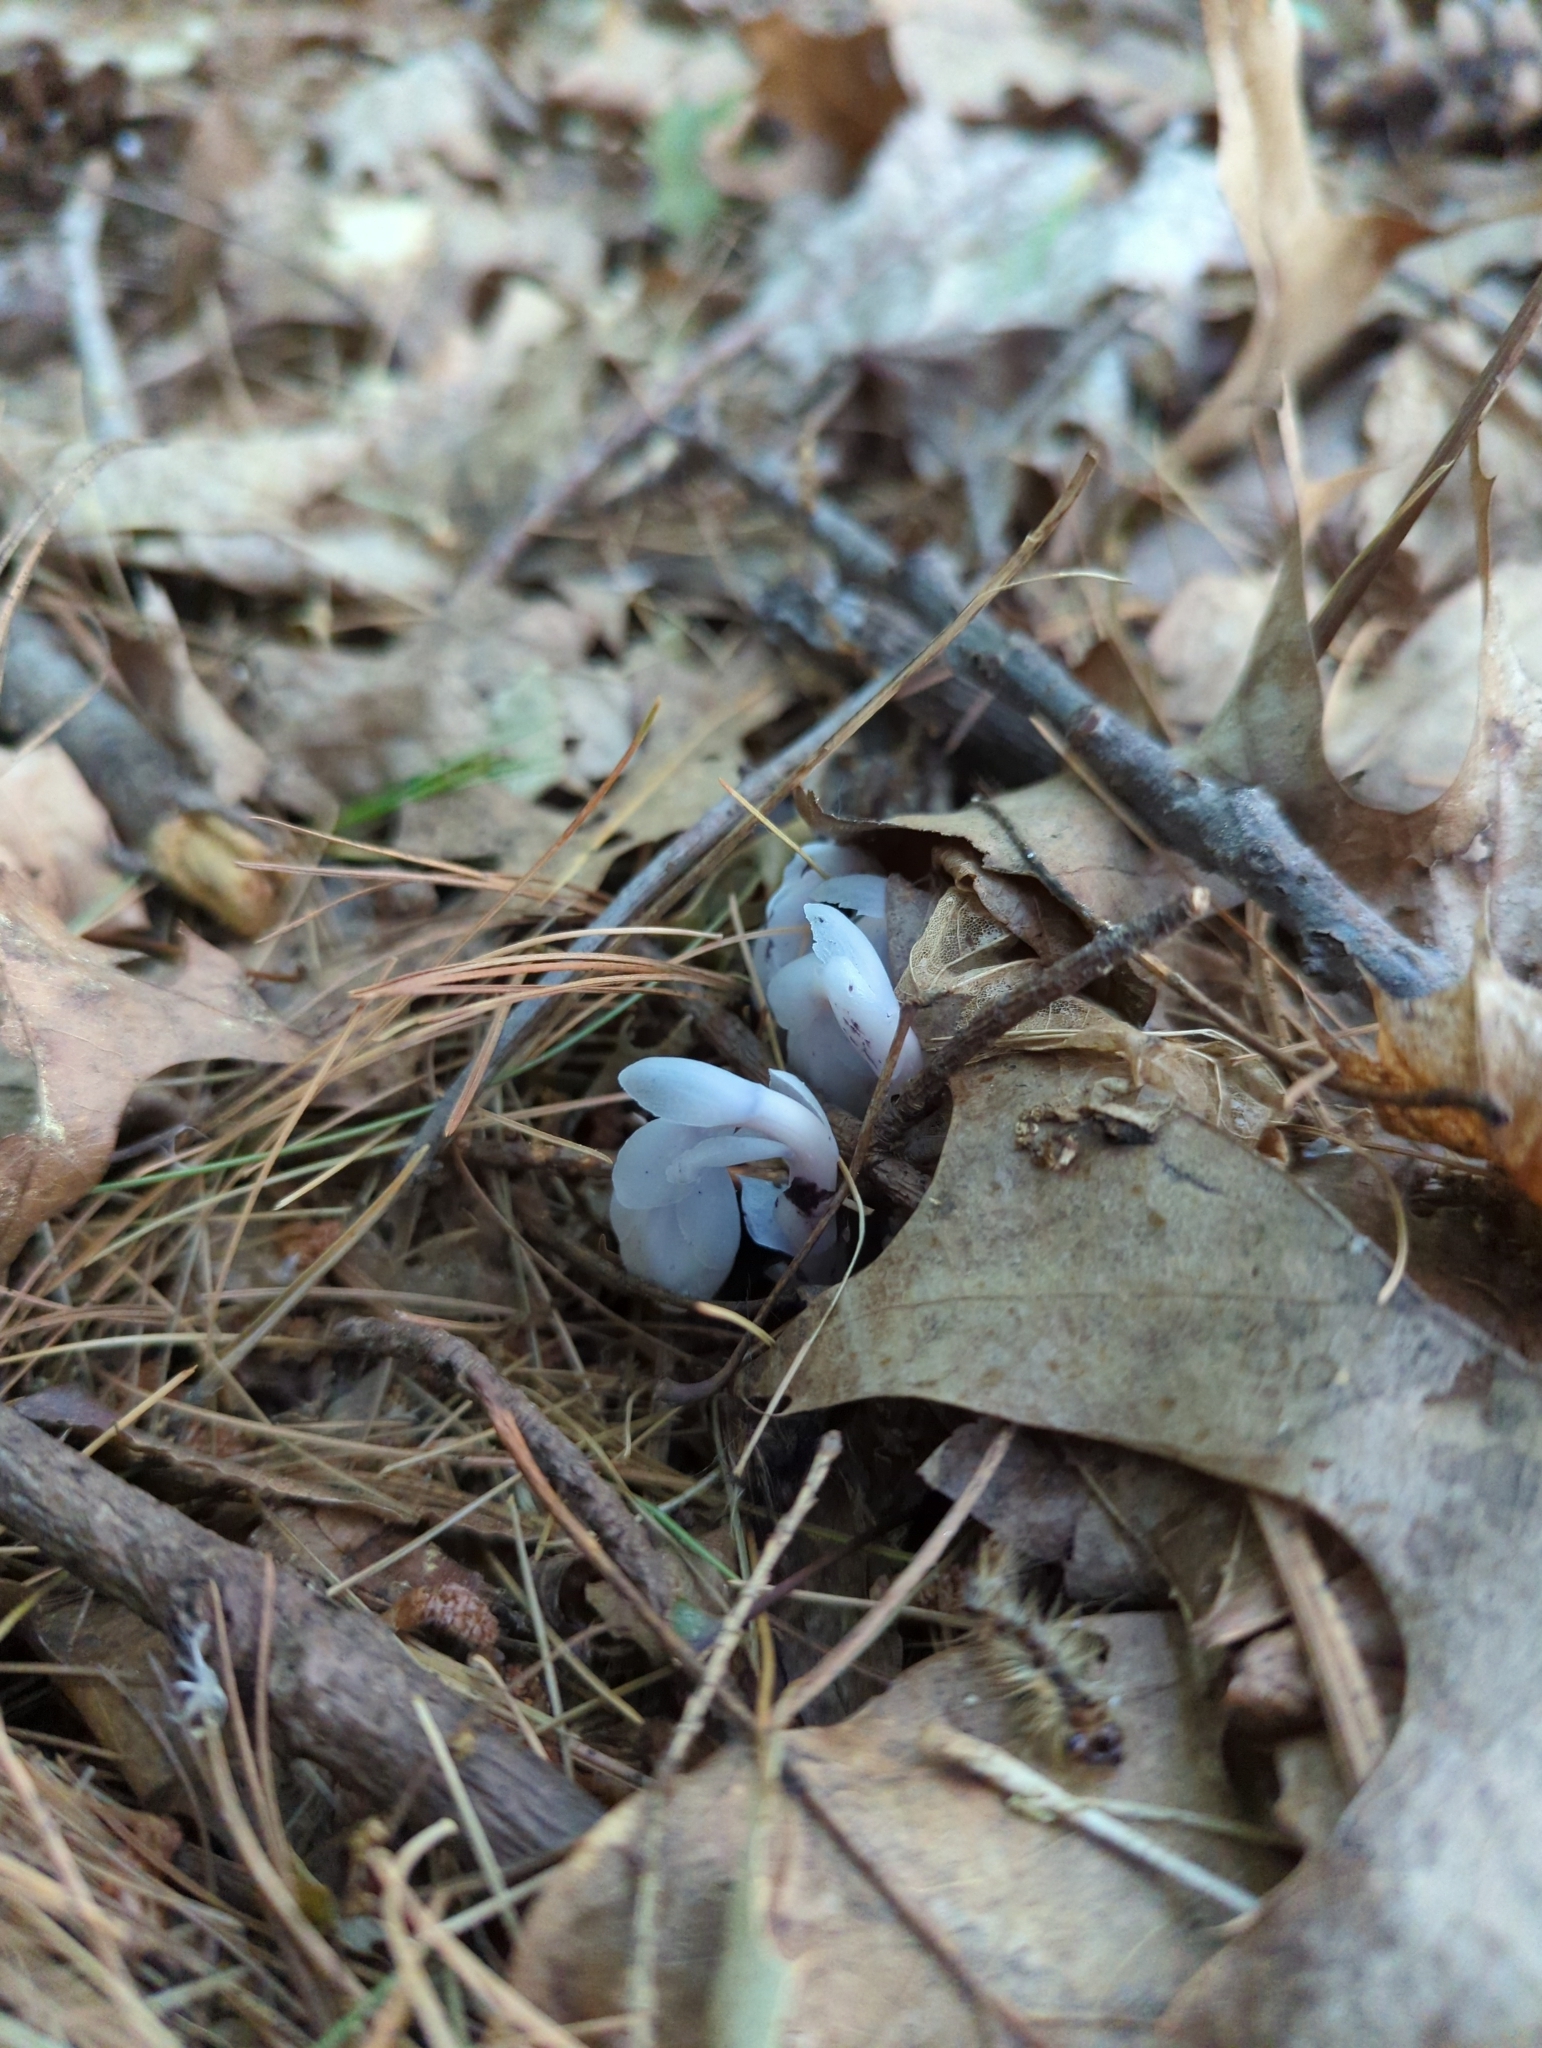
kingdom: Plantae
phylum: Tracheophyta
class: Magnoliopsida
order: Ericales
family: Ericaceae
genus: Monotropa
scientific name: Monotropa uniflora
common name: Convulsion root
